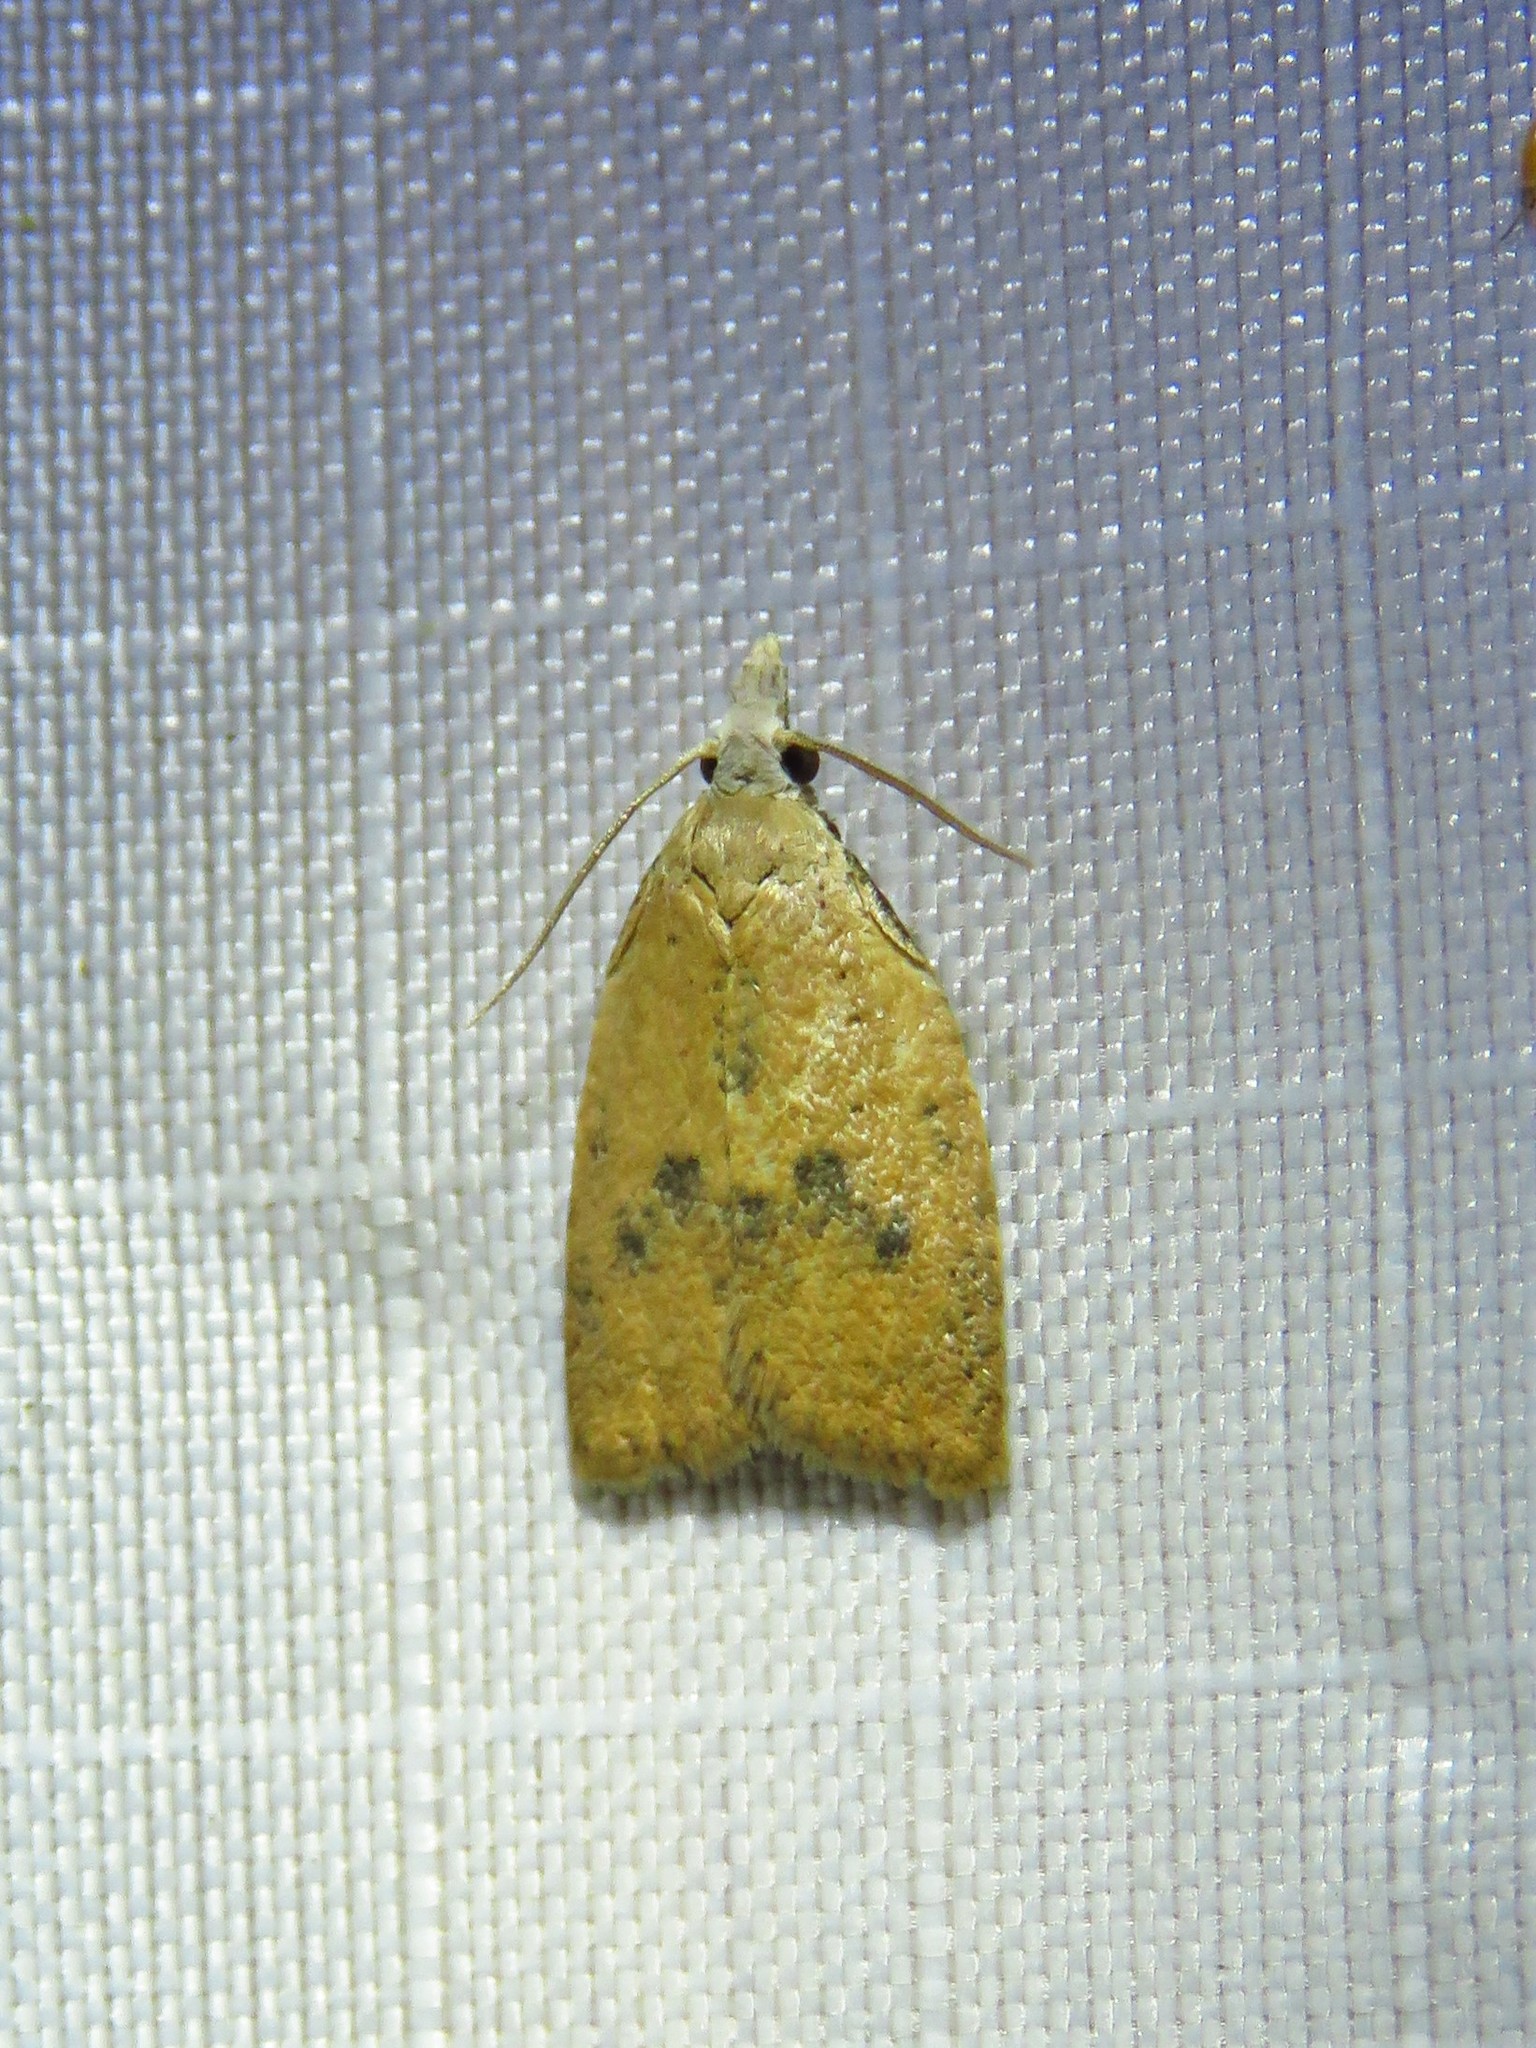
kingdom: Animalia
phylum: Arthropoda
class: Insecta
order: Lepidoptera
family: Tortricidae
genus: Sparganothoides
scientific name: Sparganothoides lentiginosana
